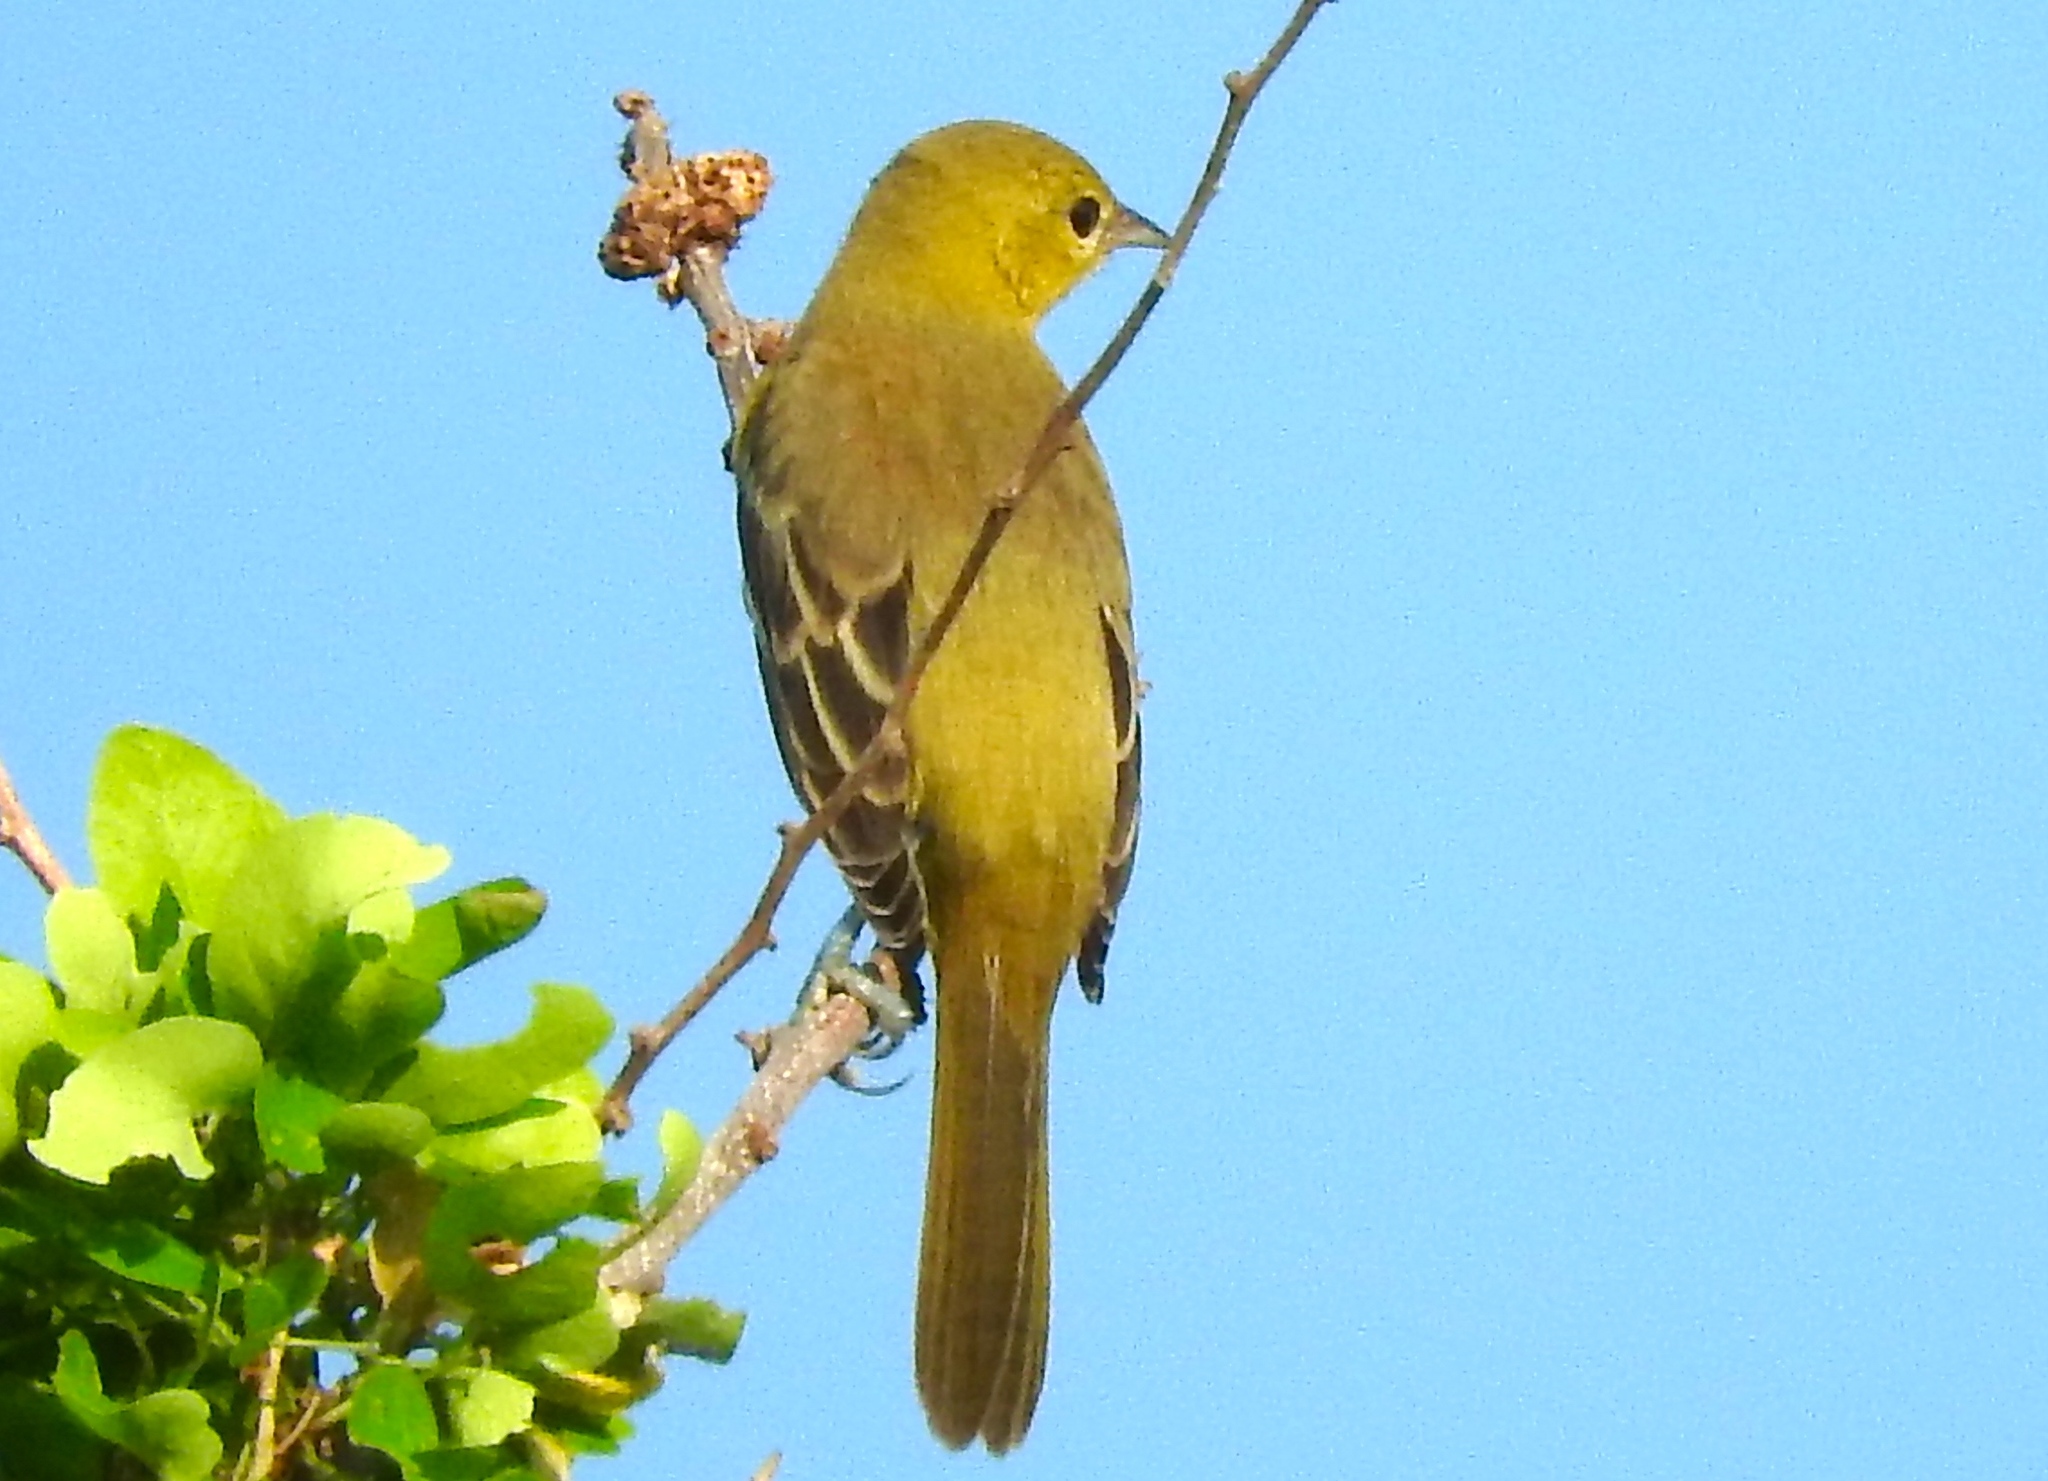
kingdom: Animalia
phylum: Chordata
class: Aves
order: Passeriformes
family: Icteridae
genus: Icterus
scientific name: Icterus spurius
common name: Orchard oriole
